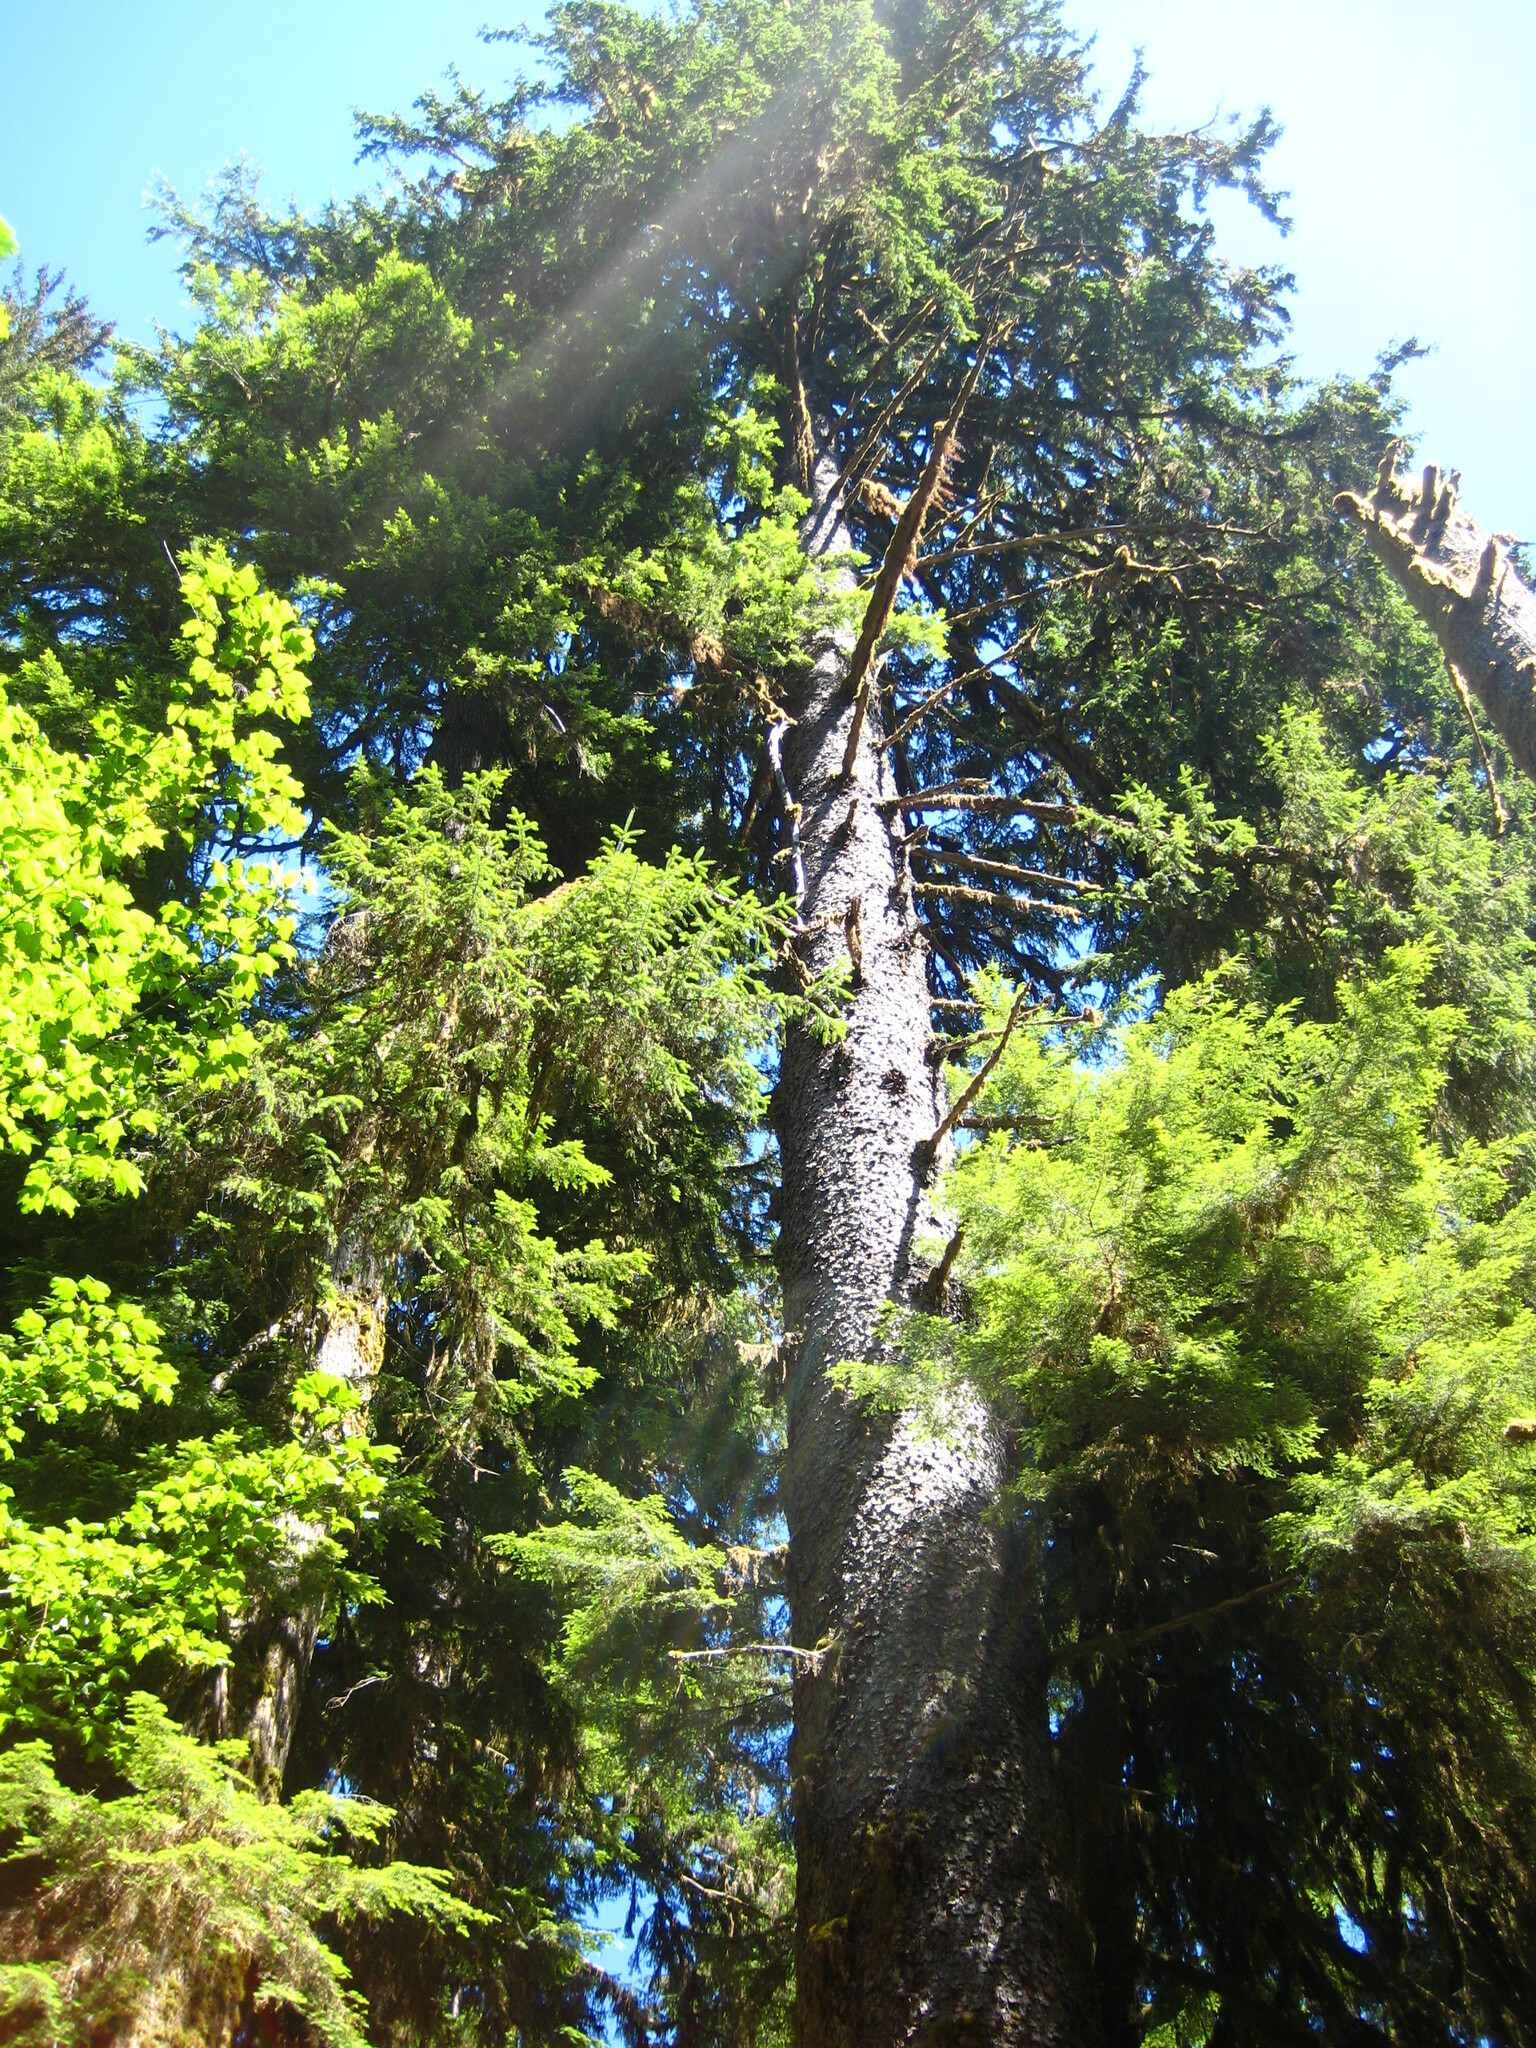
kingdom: Plantae
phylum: Tracheophyta
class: Pinopsida
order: Pinales
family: Pinaceae
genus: Picea
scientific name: Picea sitchensis
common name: Sitka spruce
